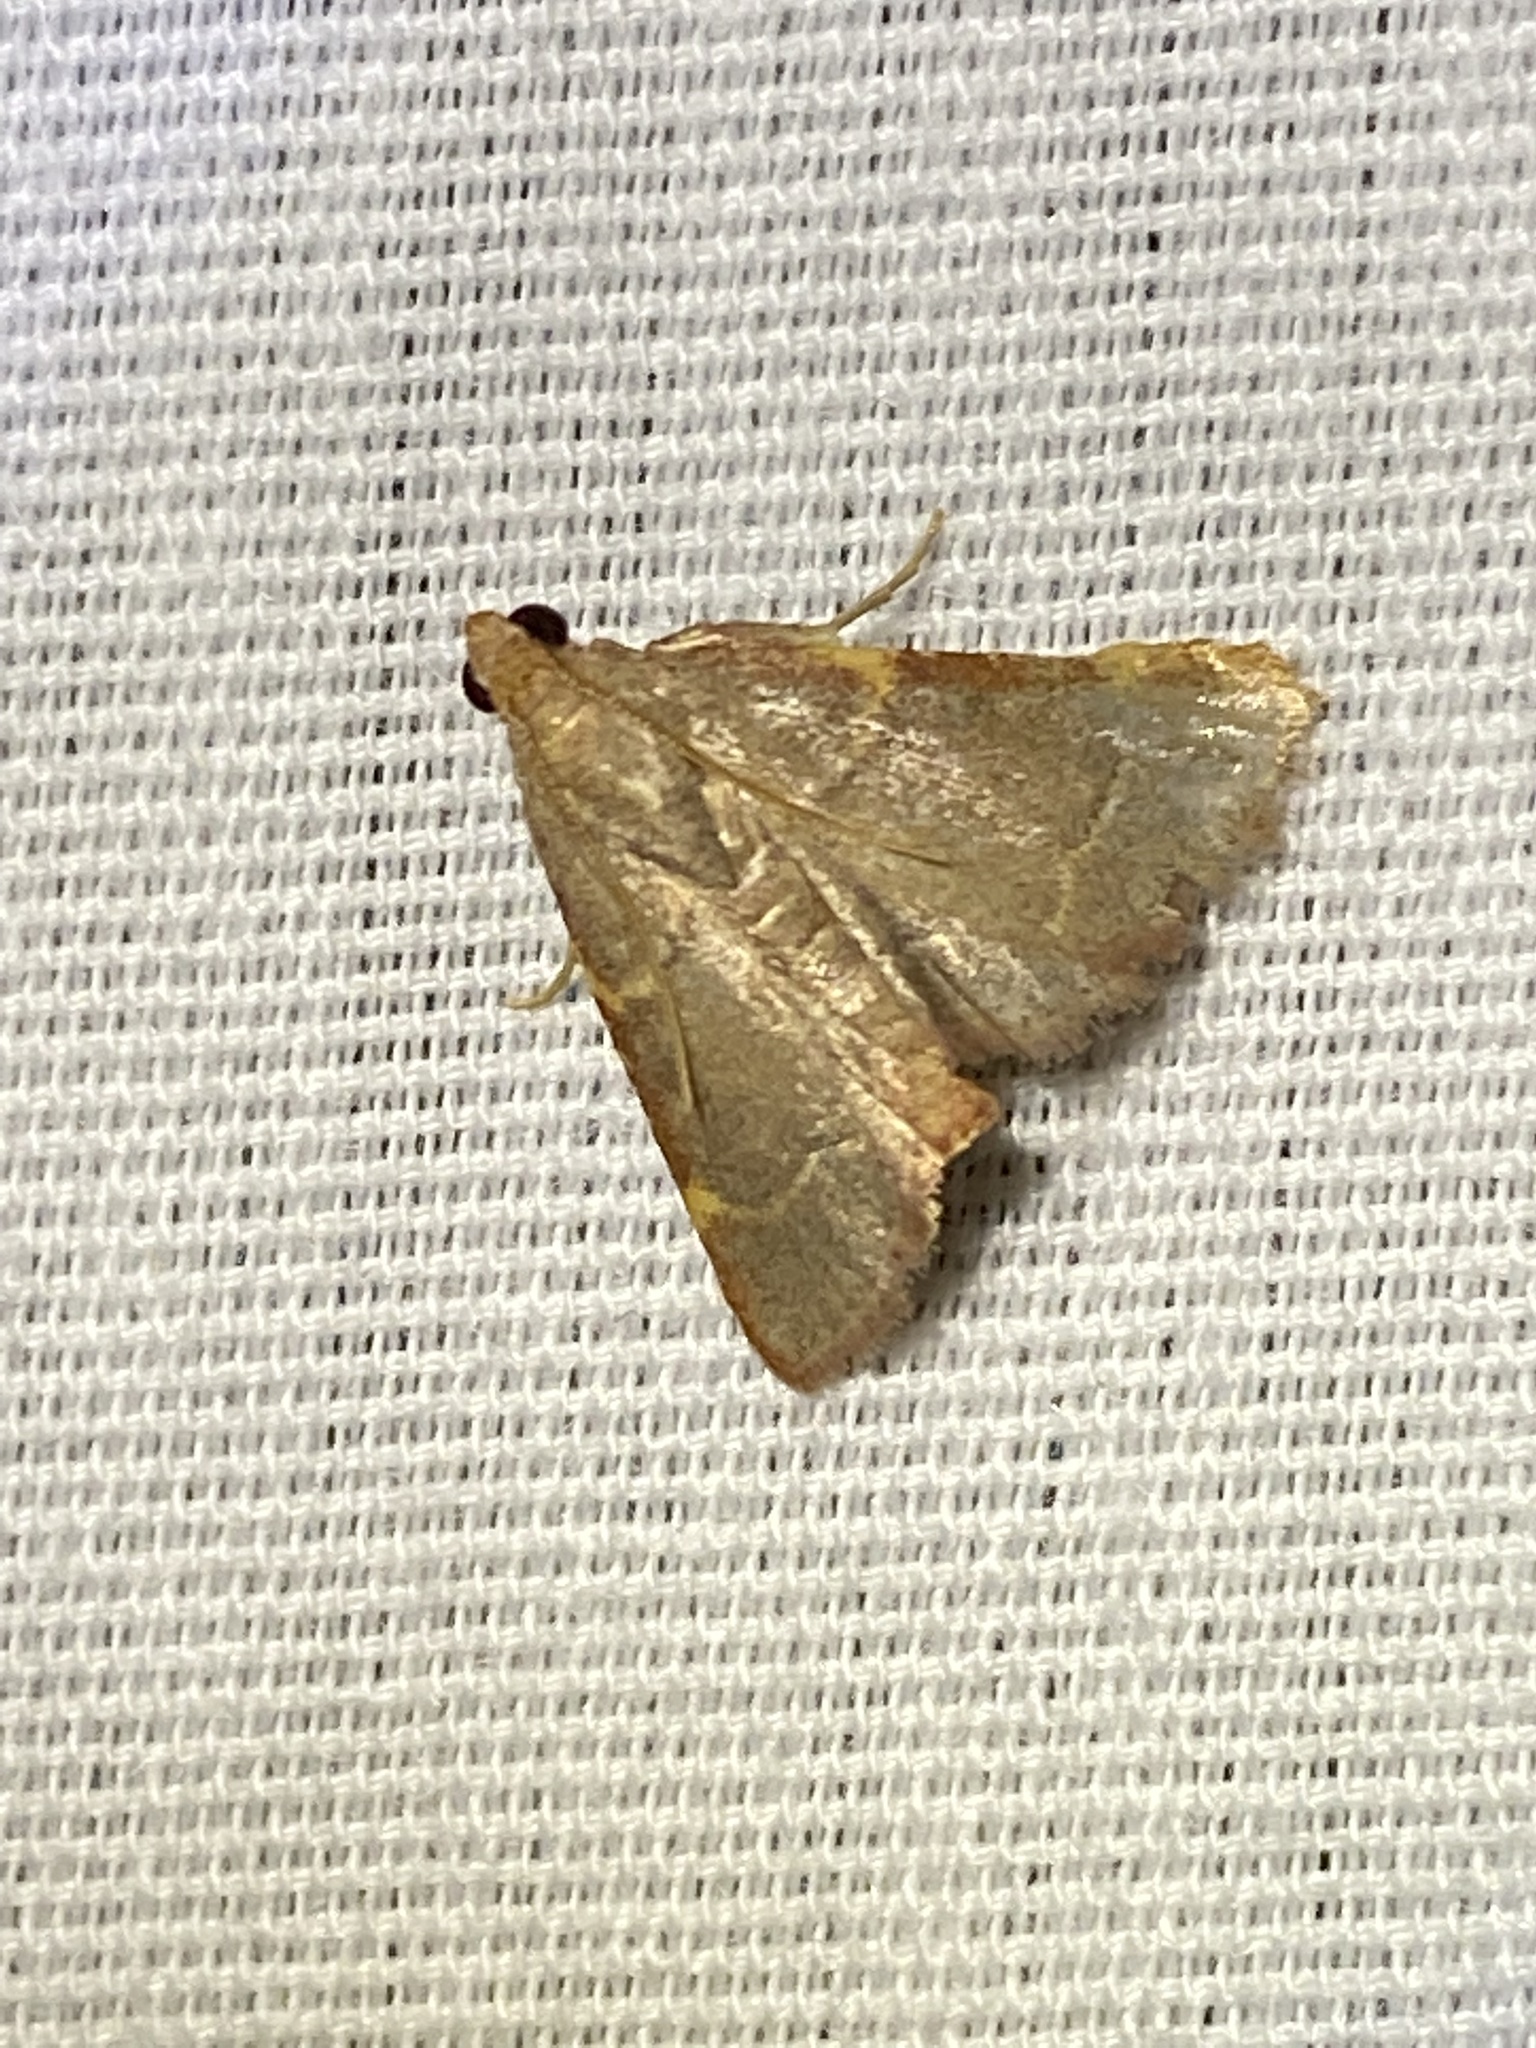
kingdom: Animalia
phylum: Arthropoda
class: Insecta
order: Lepidoptera
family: Pyralidae
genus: Hypsopygia
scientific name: Hypsopygia binodulalis
